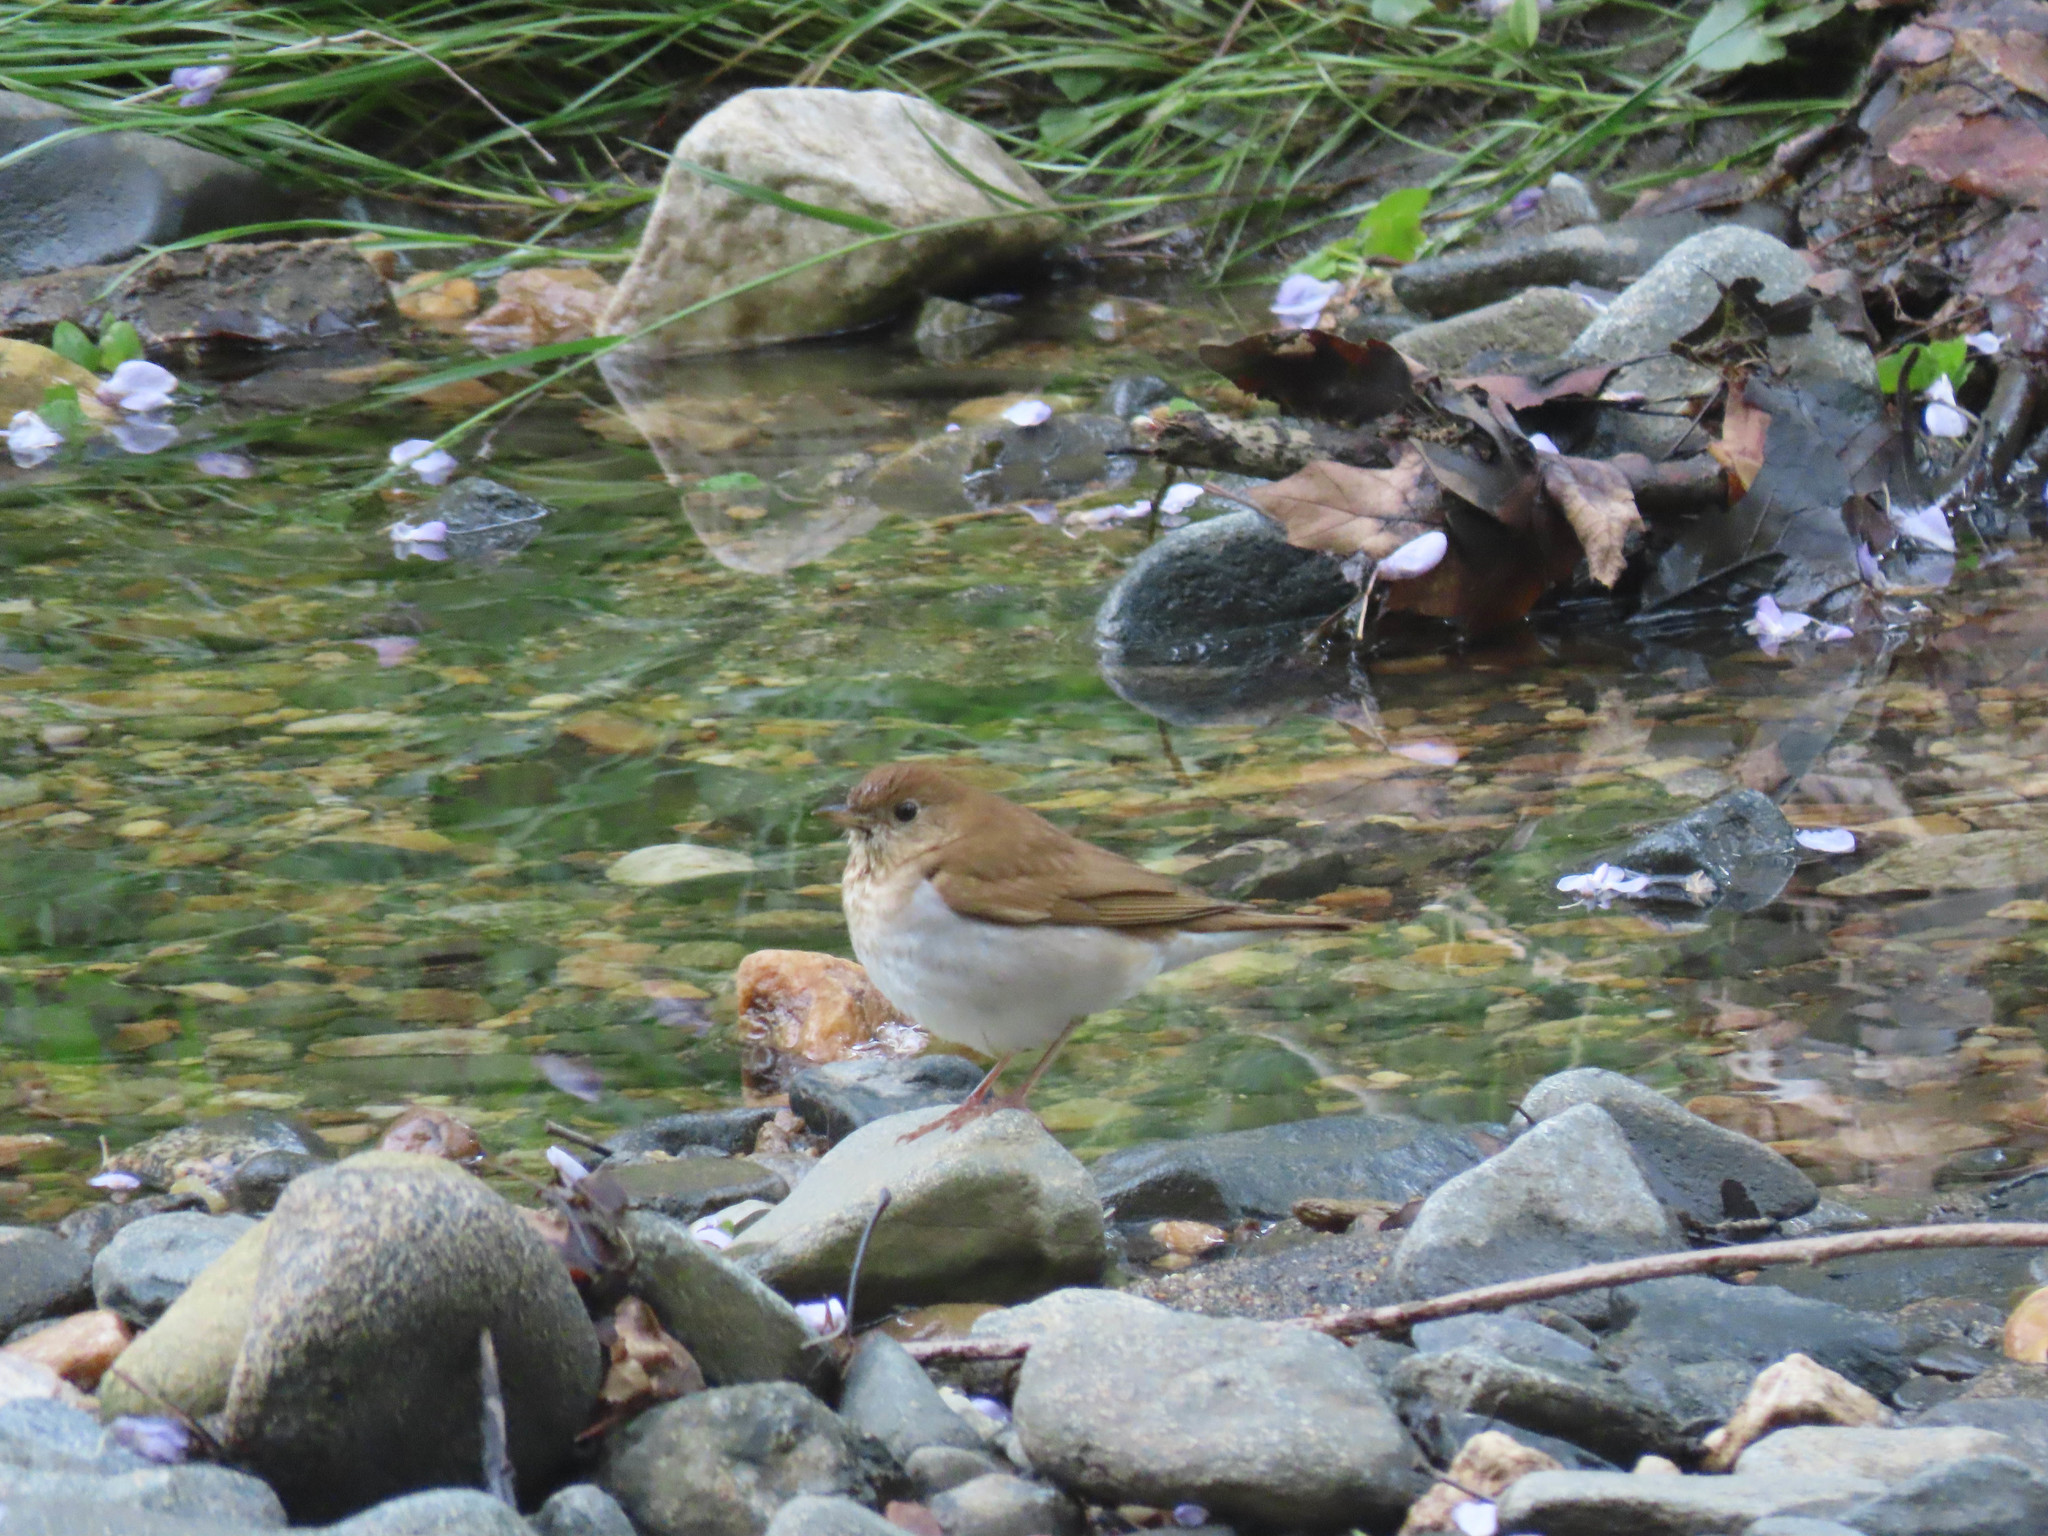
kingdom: Animalia
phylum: Chordata
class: Aves
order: Passeriformes
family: Turdidae
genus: Catharus
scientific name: Catharus fuscescens
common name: Veery
